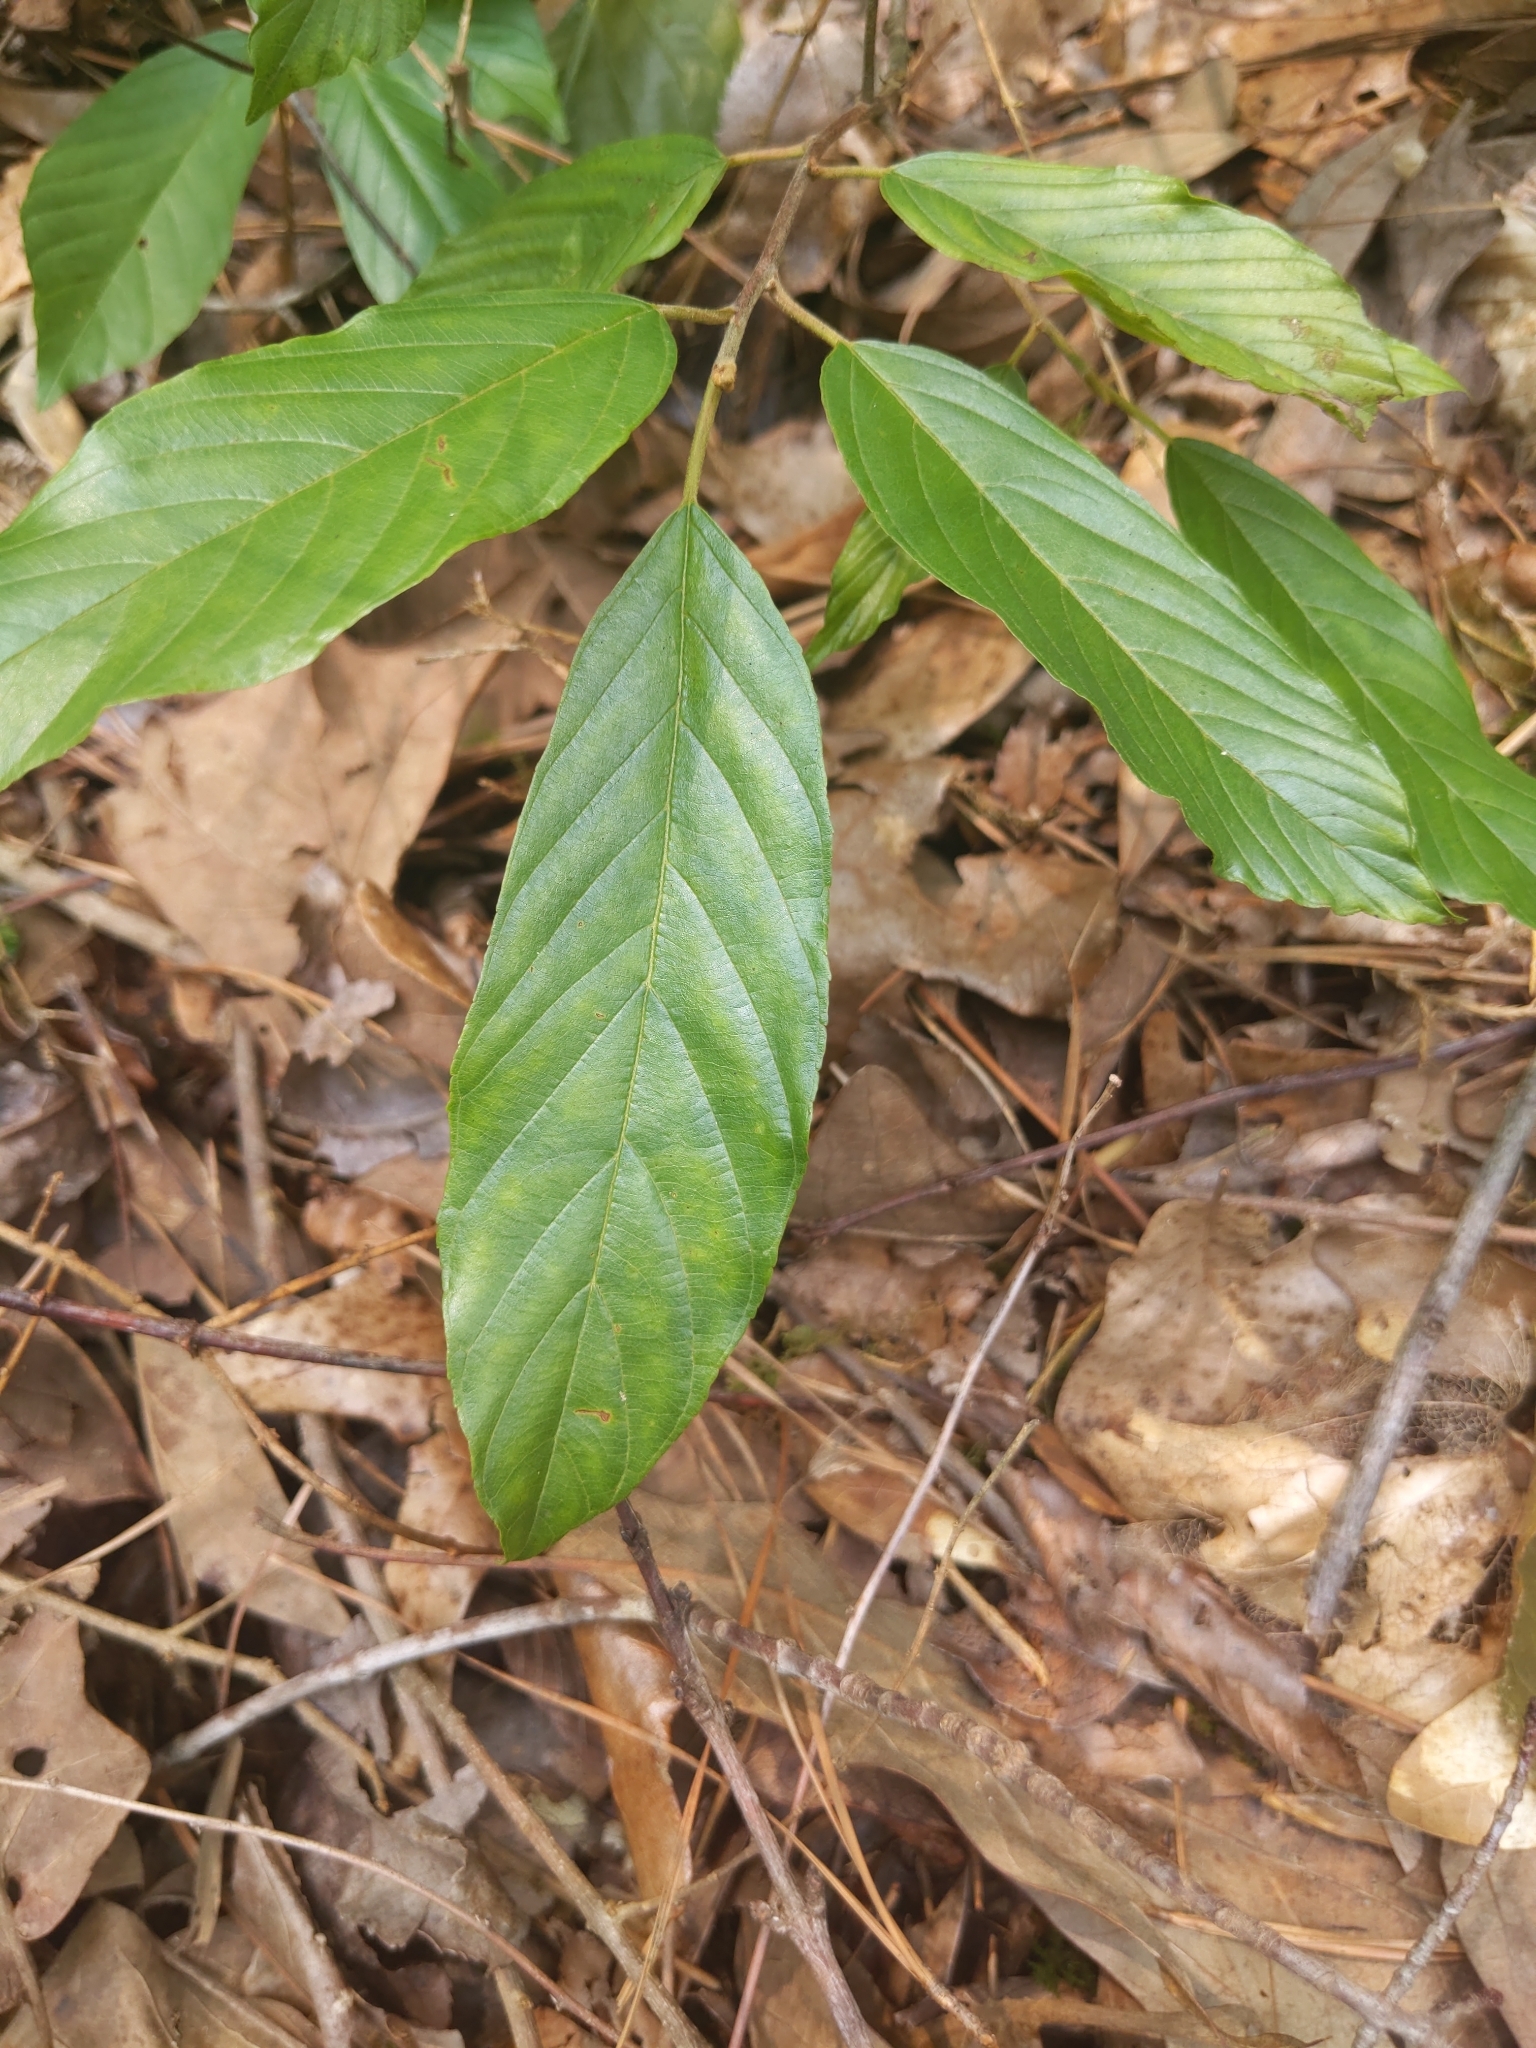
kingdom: Plantae
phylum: Tracheophyta
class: Magnoliopsida
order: Rosales
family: Rhamnaceae
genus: Frangula
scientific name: Frangula caroliniana
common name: Carolina buckthorn
